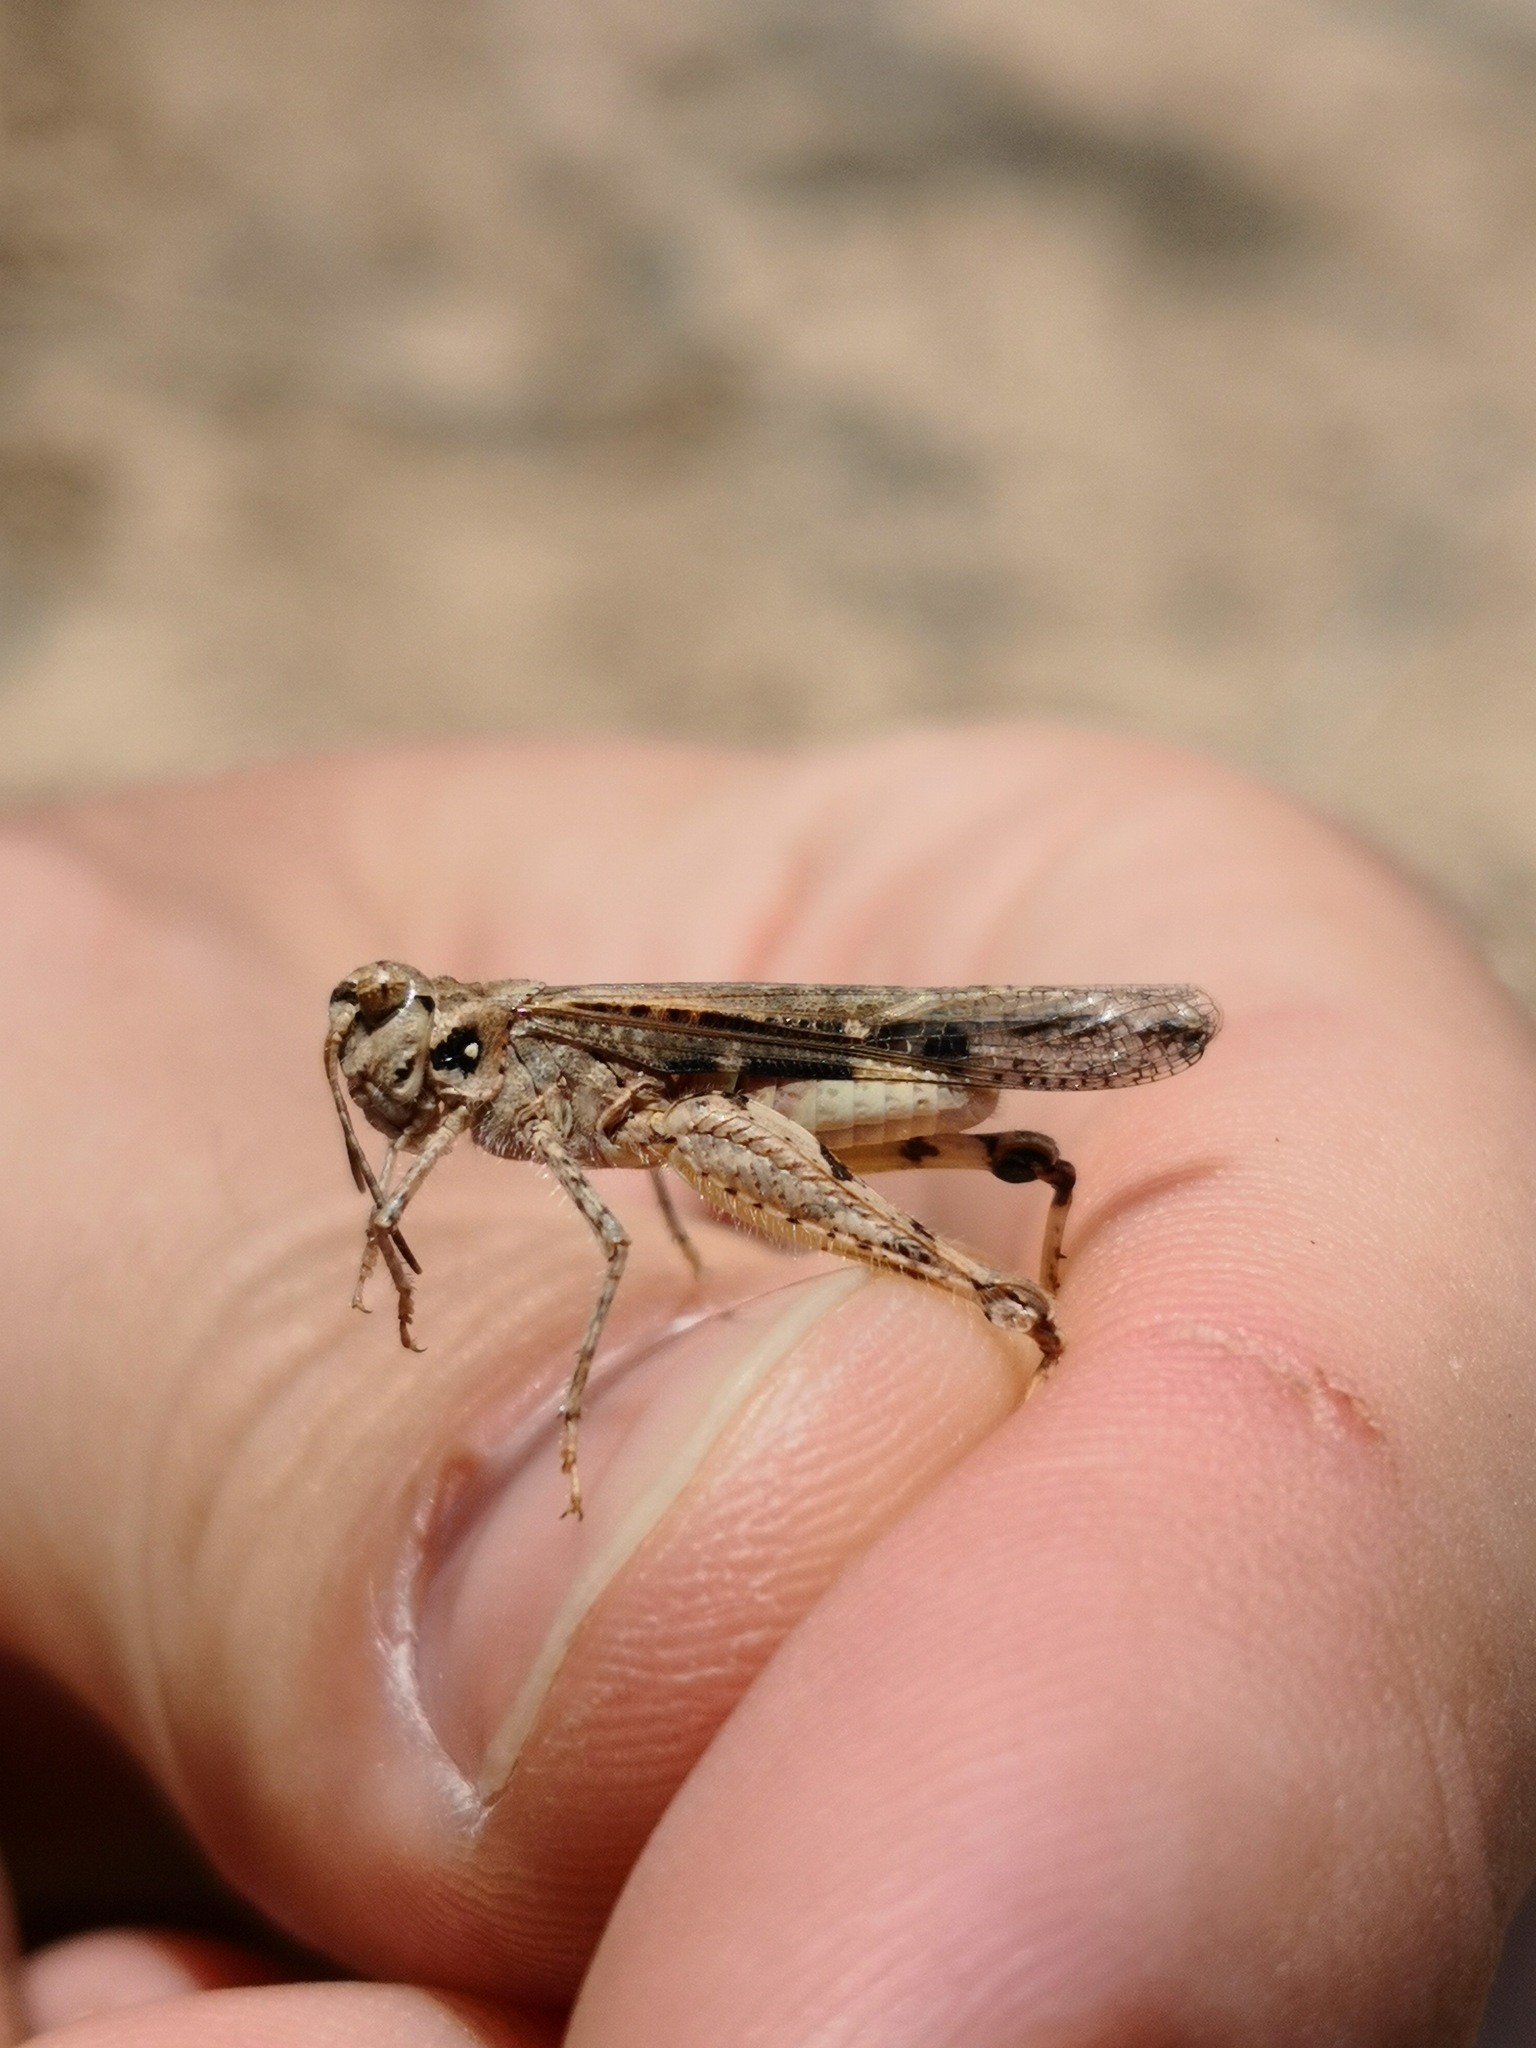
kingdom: Animalia
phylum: Arthropoda
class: Insecta
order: Orthoptera
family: Acrididae
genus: Acrotylus
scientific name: Acrotylus insubricus
